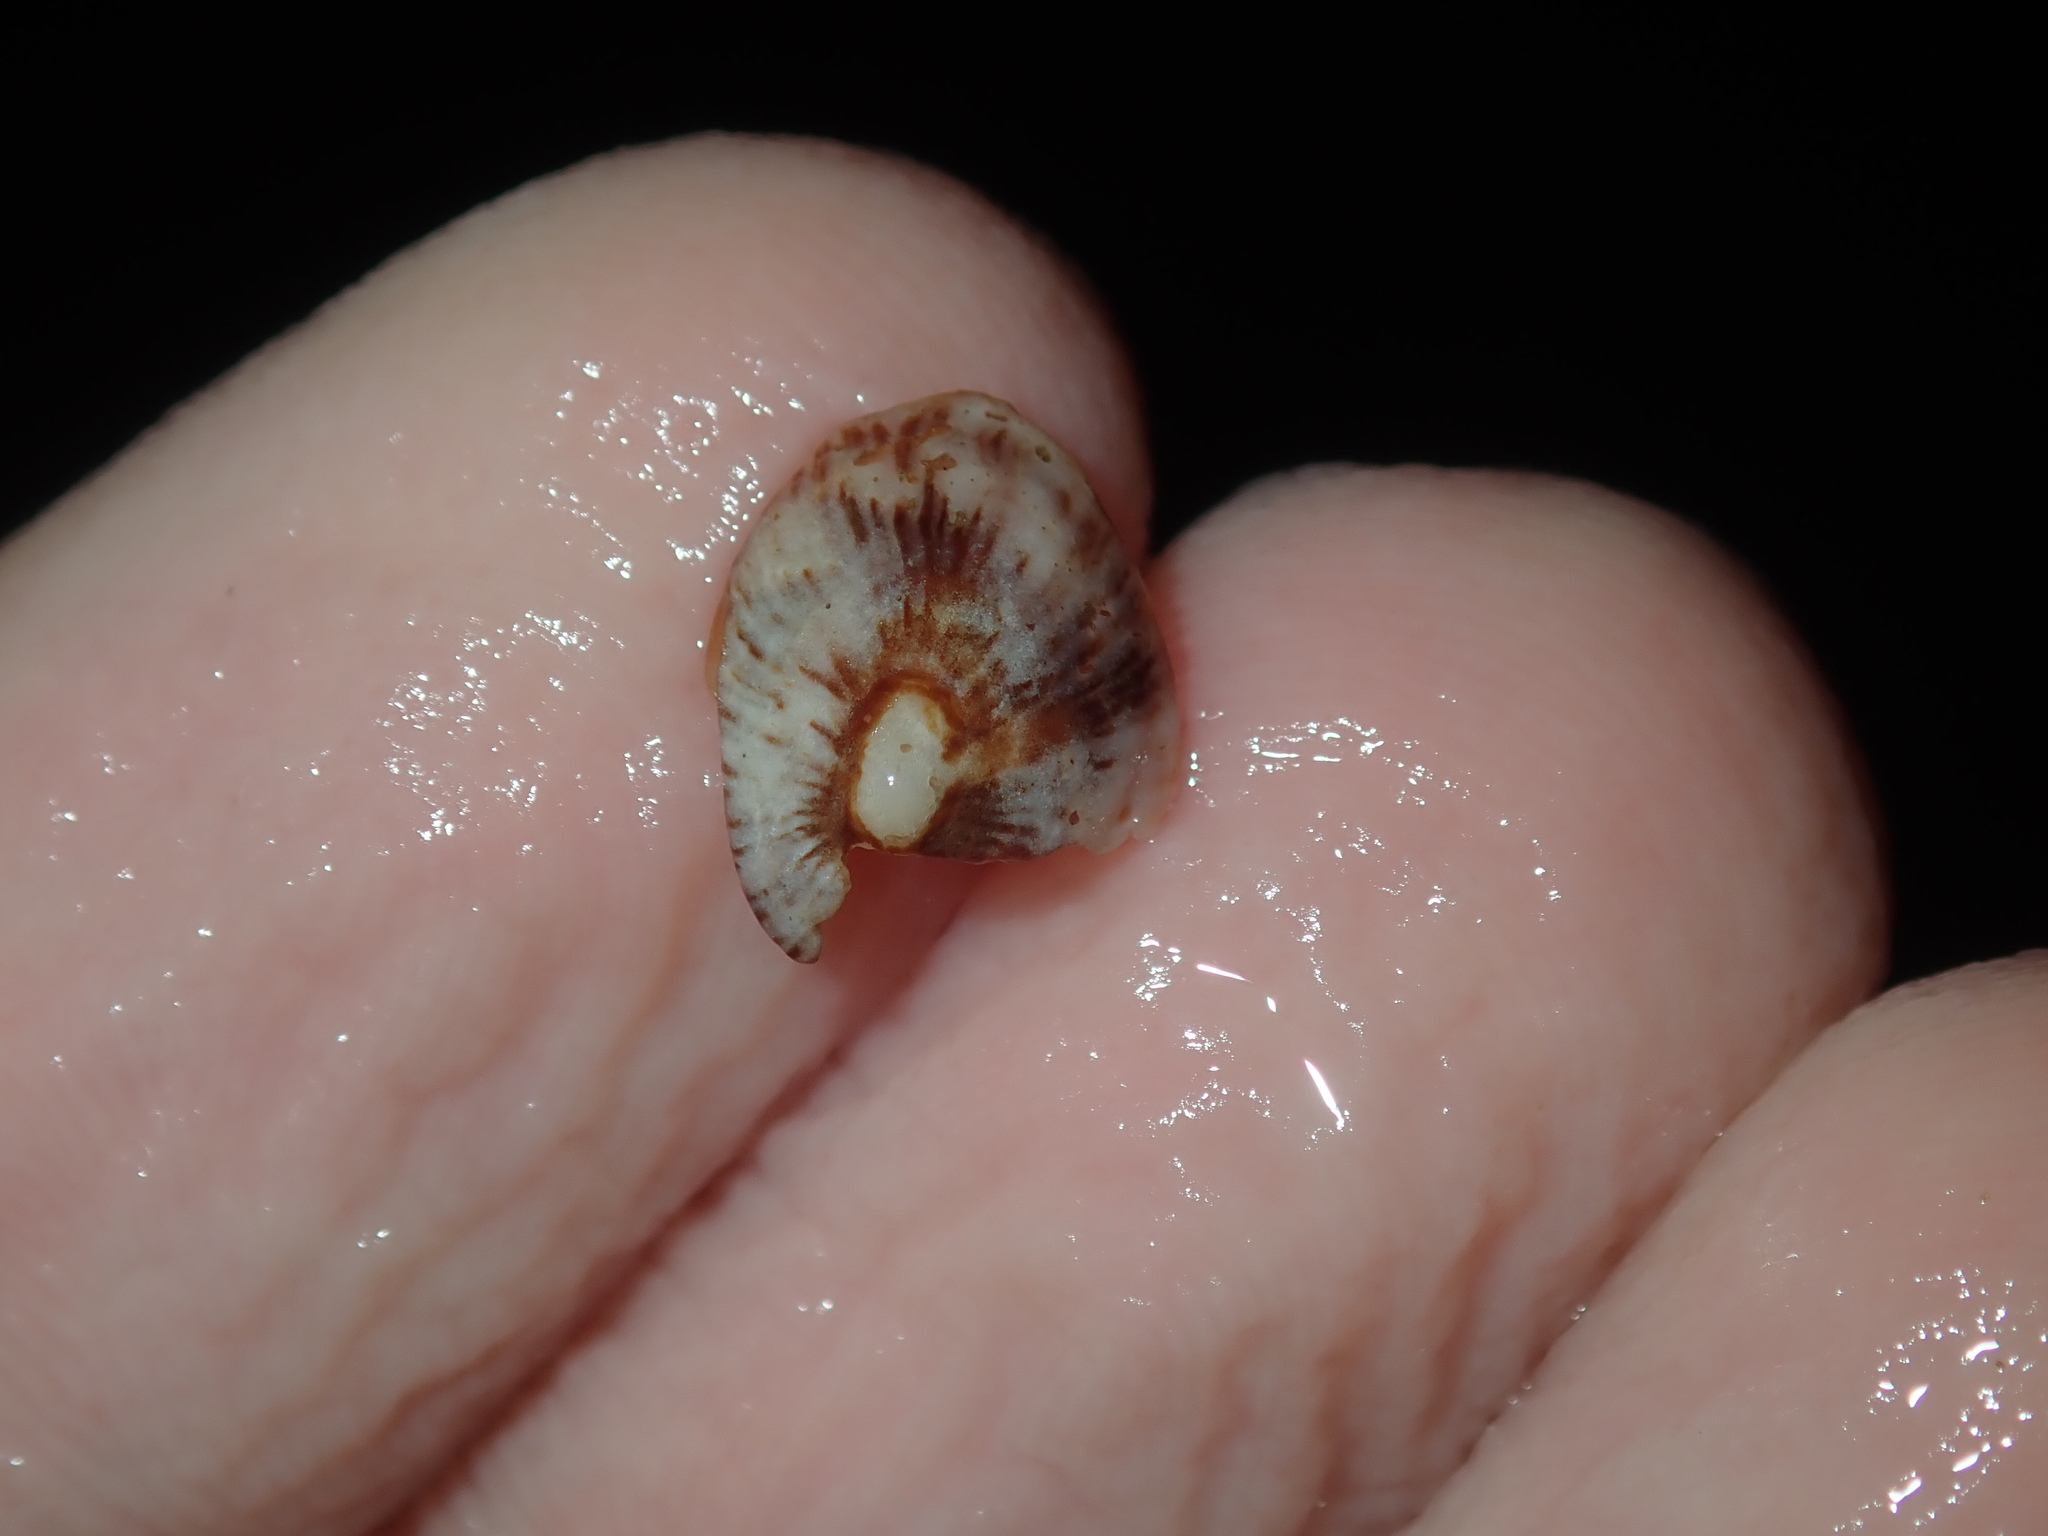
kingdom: Animalia
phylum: Mollusca
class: Gastropoda
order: Siphonariida
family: Siphonariidae
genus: Siphonaria
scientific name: Siphonaria funiculata
